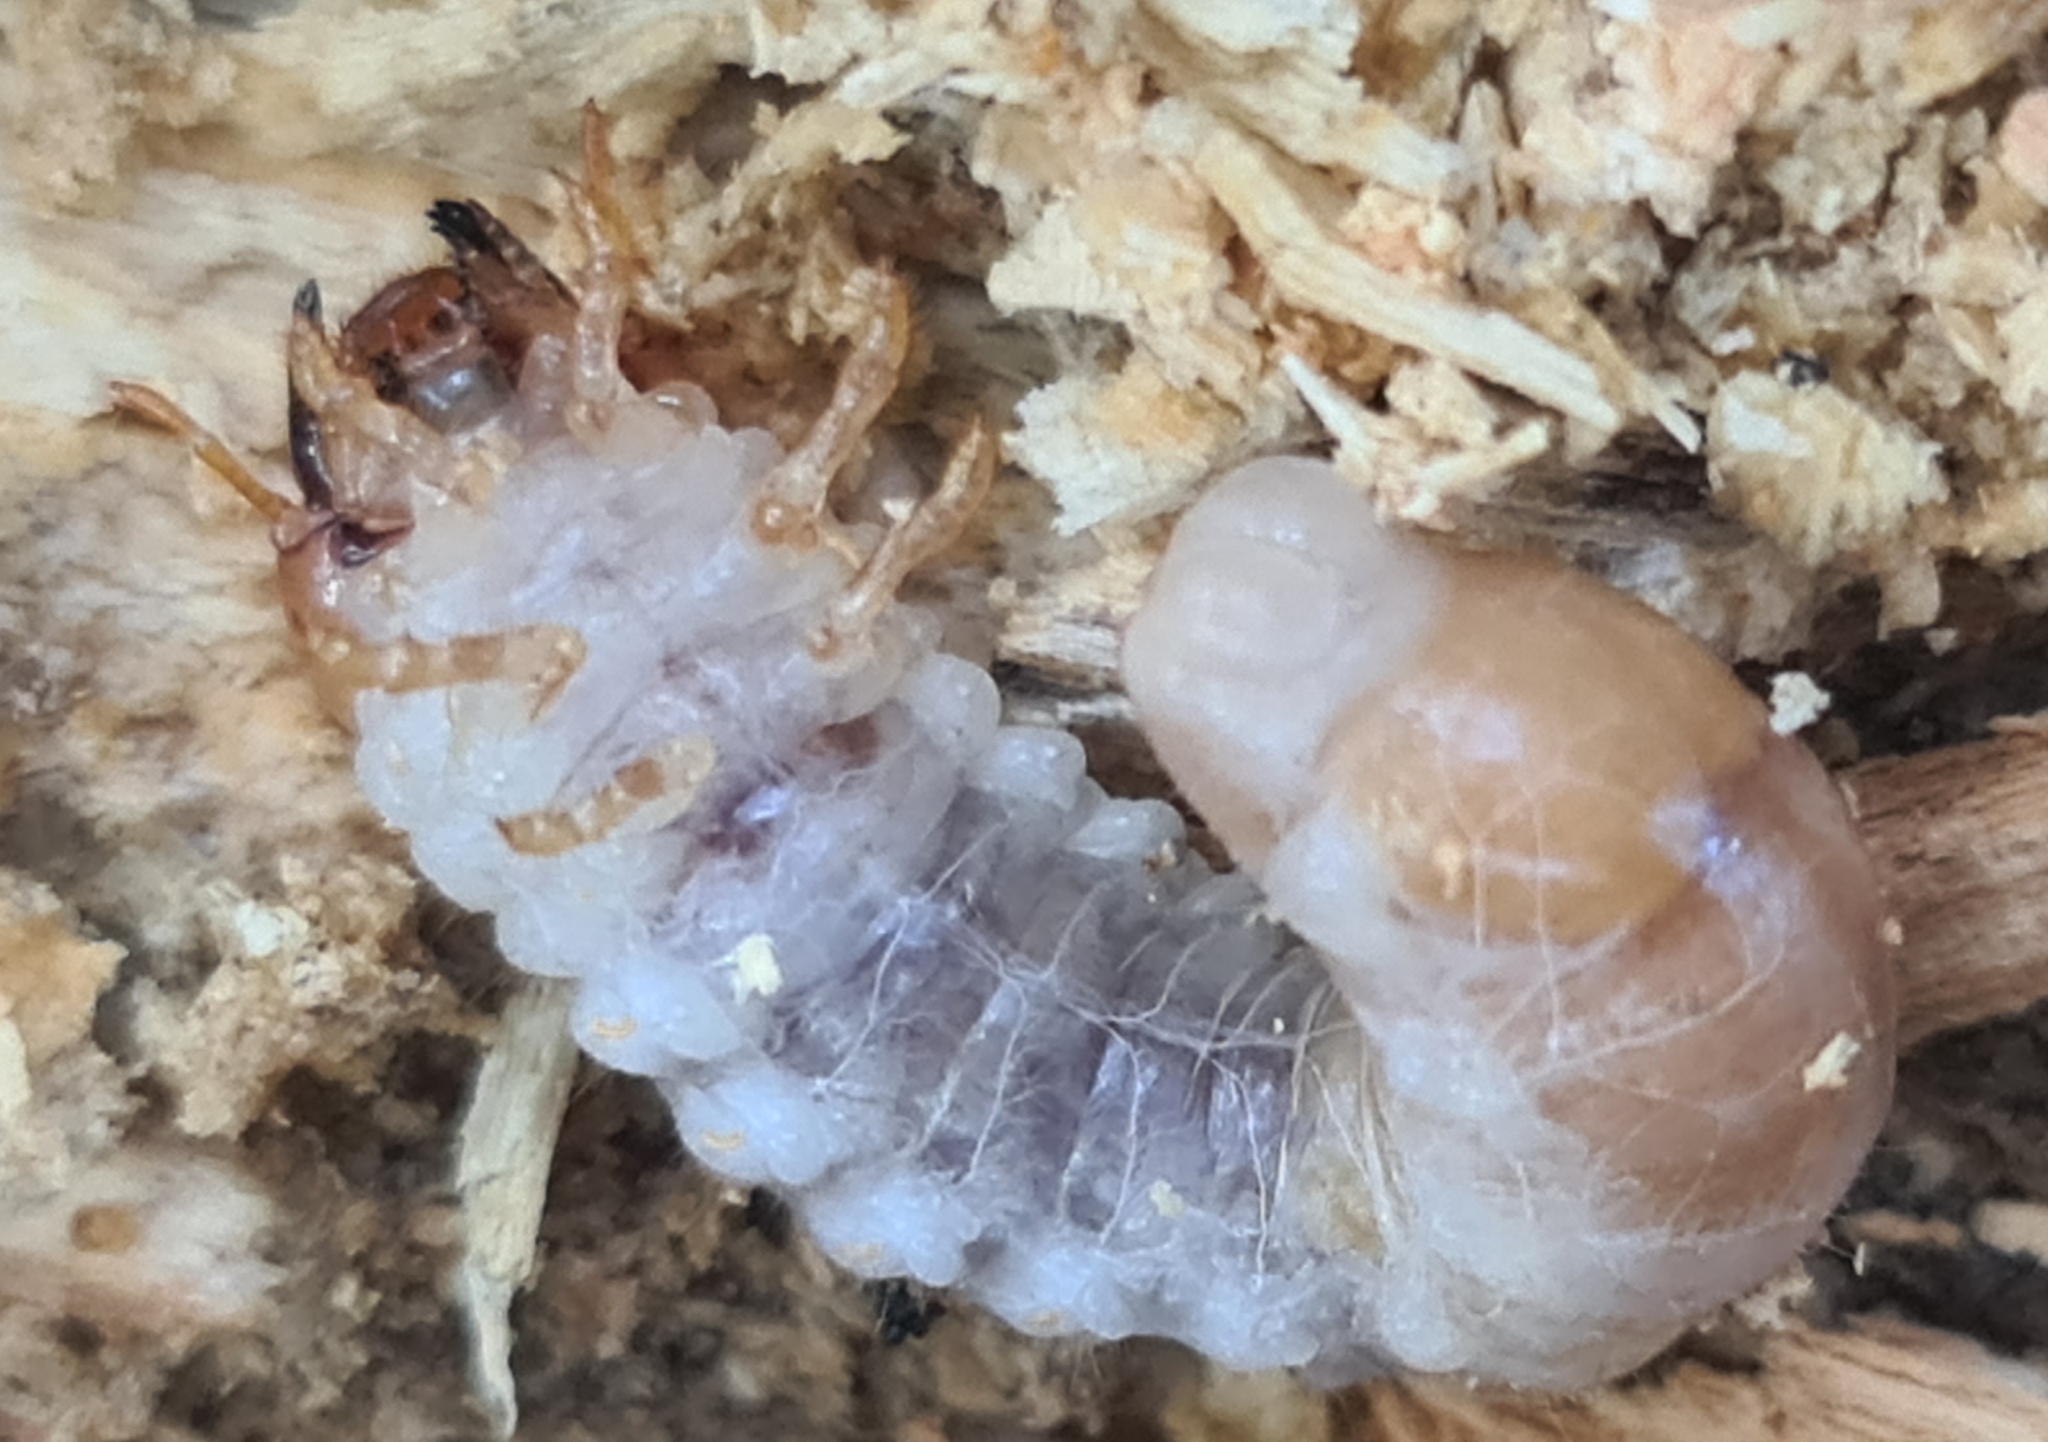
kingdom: Animalia
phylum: Arthropoda
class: Insecta
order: Coleoptera
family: Lucanidae
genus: Dorcus
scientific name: Dorcus parallelipipedus
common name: Lesser stag beetle
